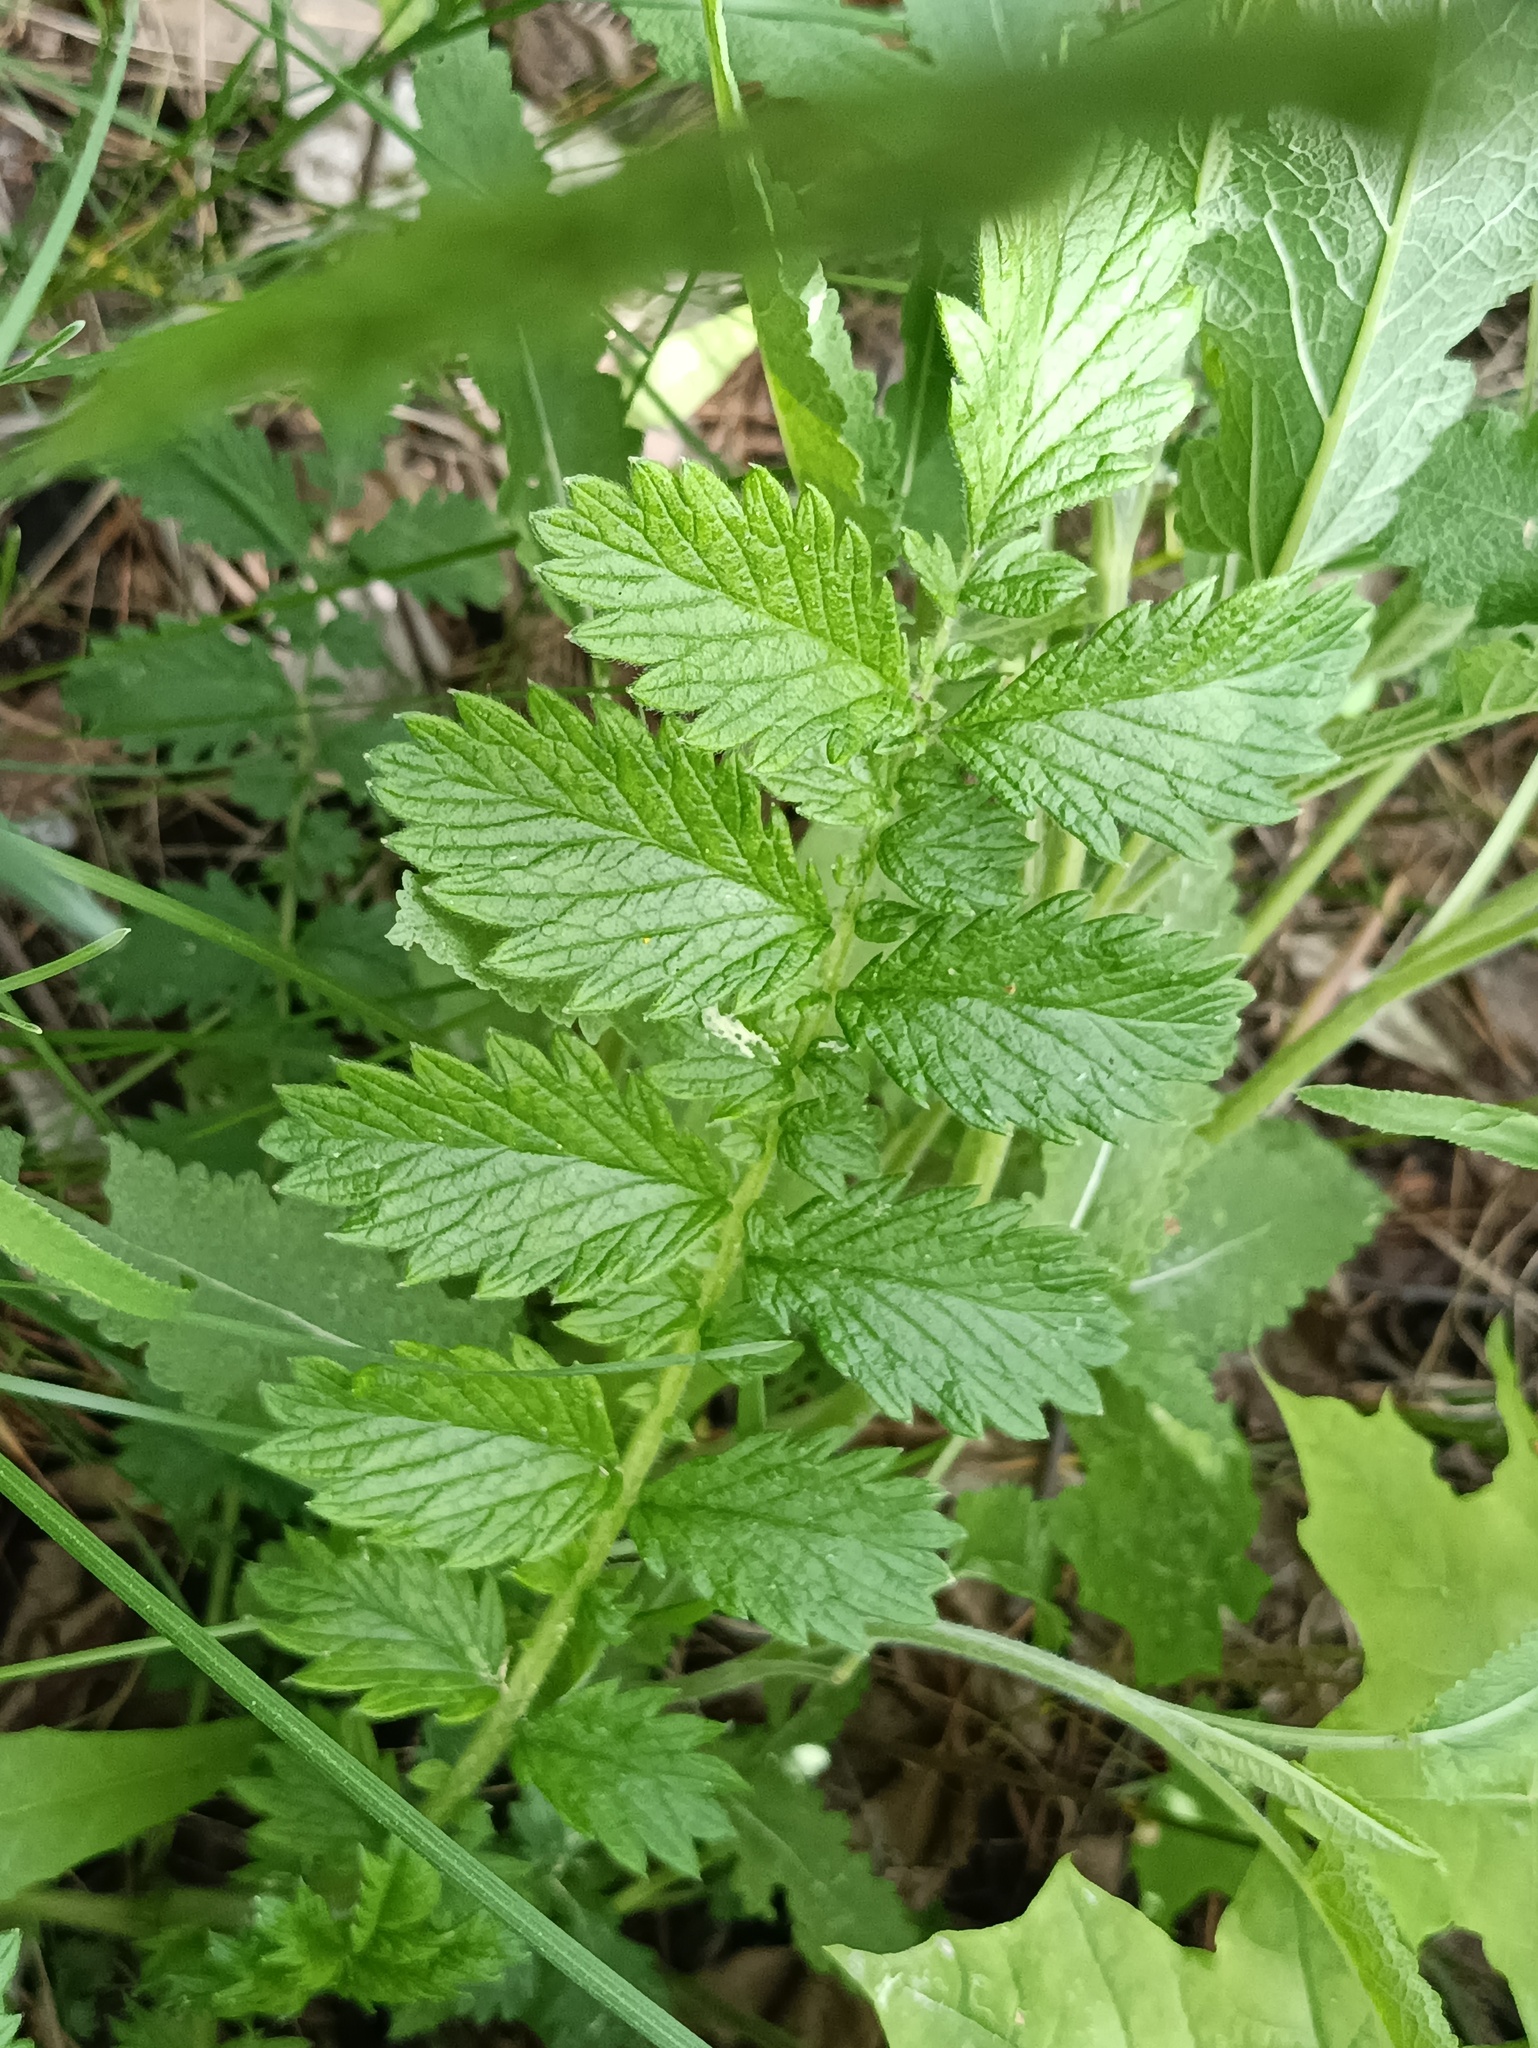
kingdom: Plantae
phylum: Tracheophyta
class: Magnoliopsida
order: Rosales
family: Rosaceae
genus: Agrimonia
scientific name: Agrimonia eupatoria
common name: Agrimony
